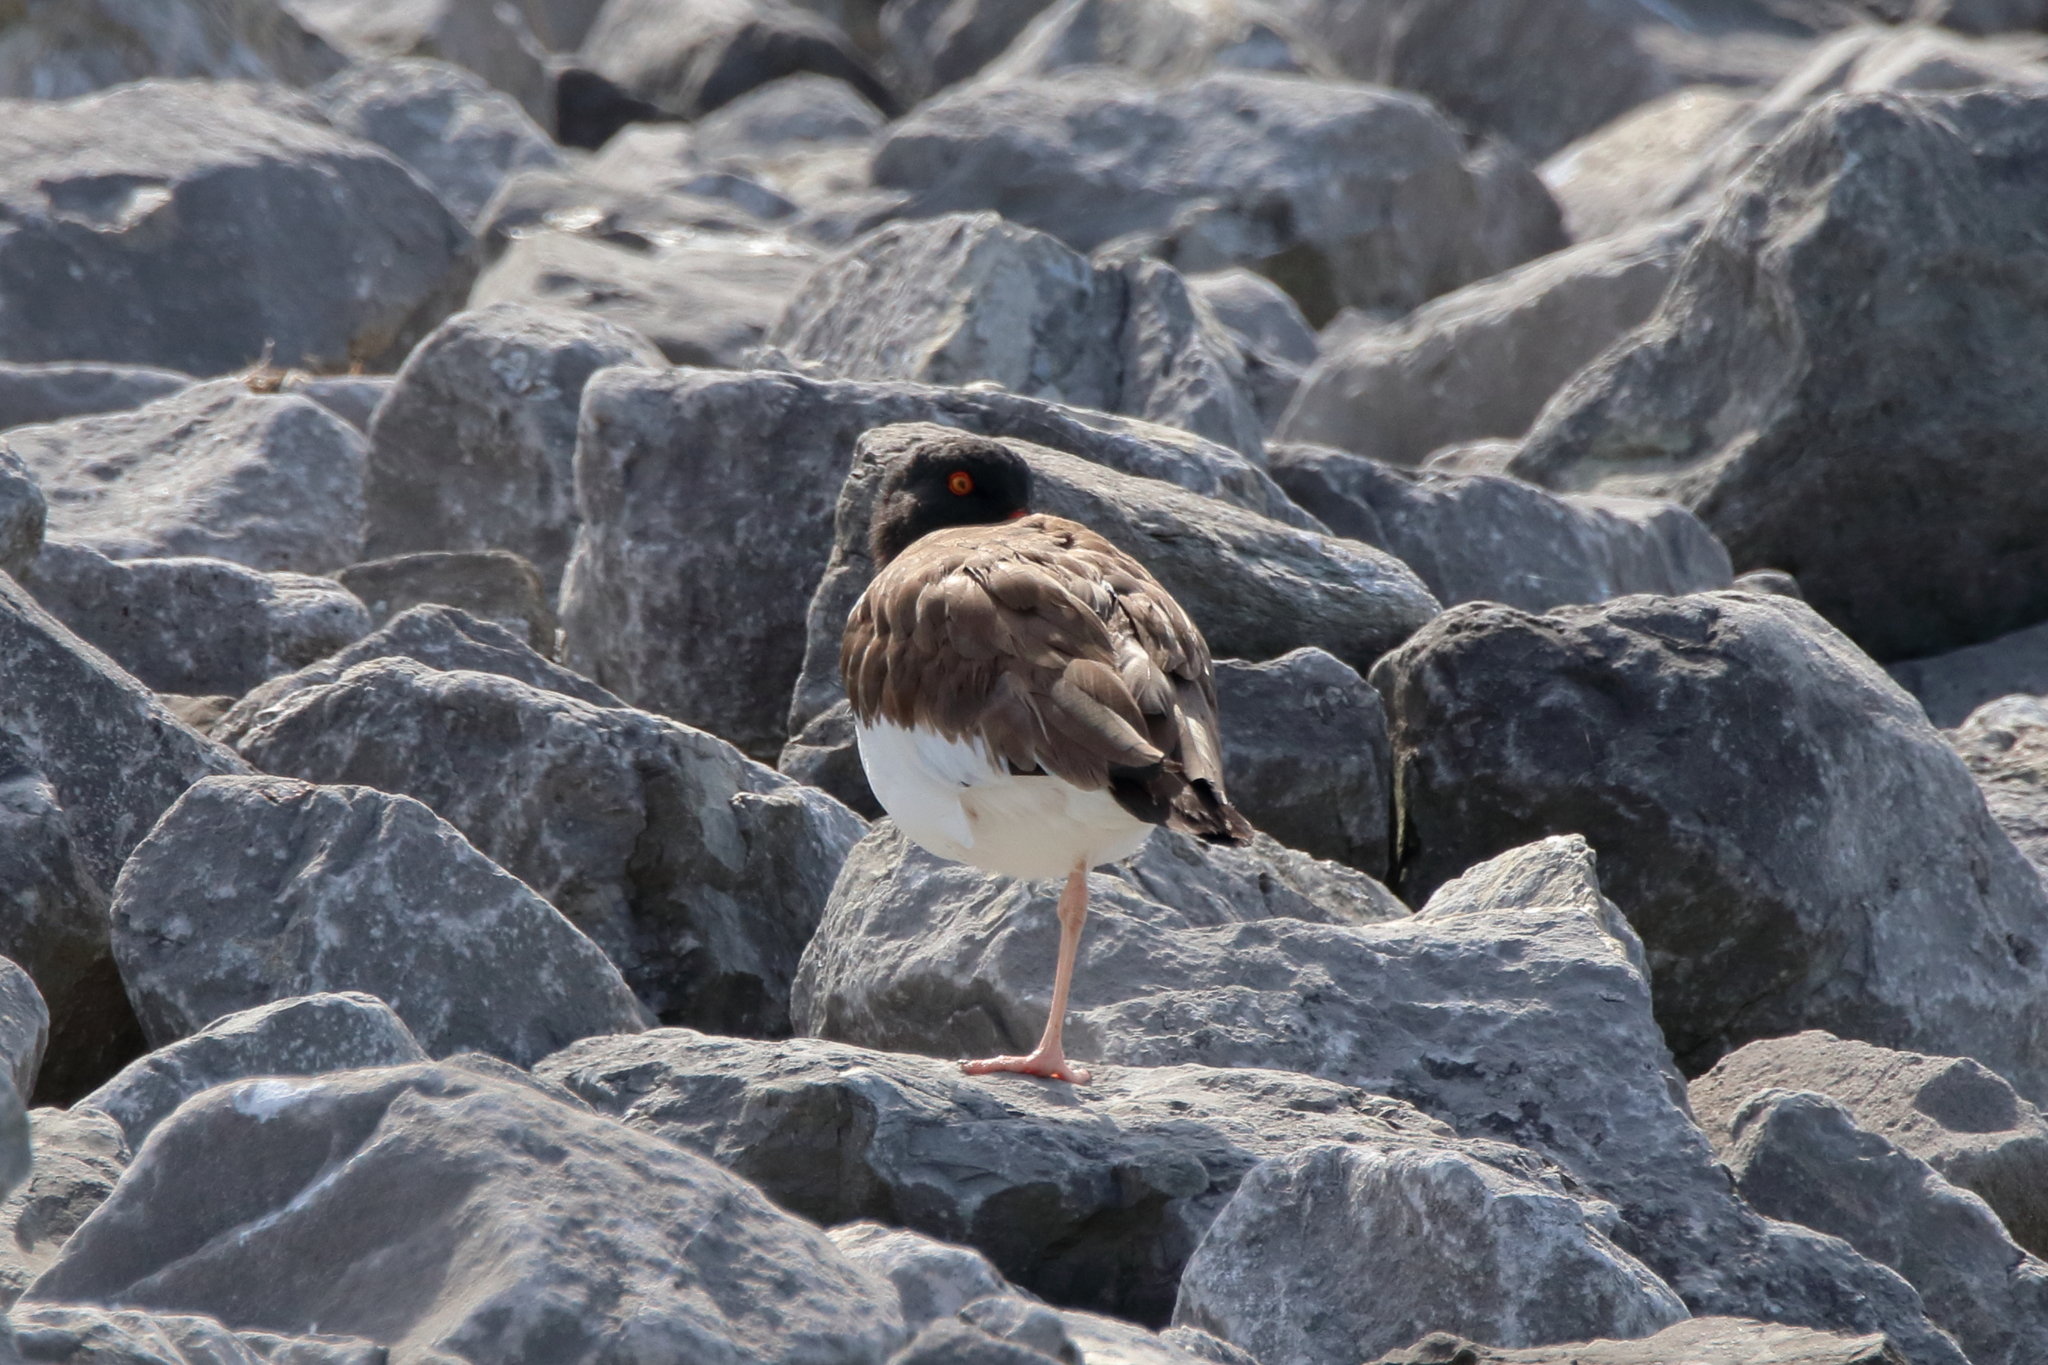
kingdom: Animalia
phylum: Chordata
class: Aves
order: Charadriiformes
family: Haematopodidae
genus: Haematopus
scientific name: Haematopus palliatus
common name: American oystercatcher
